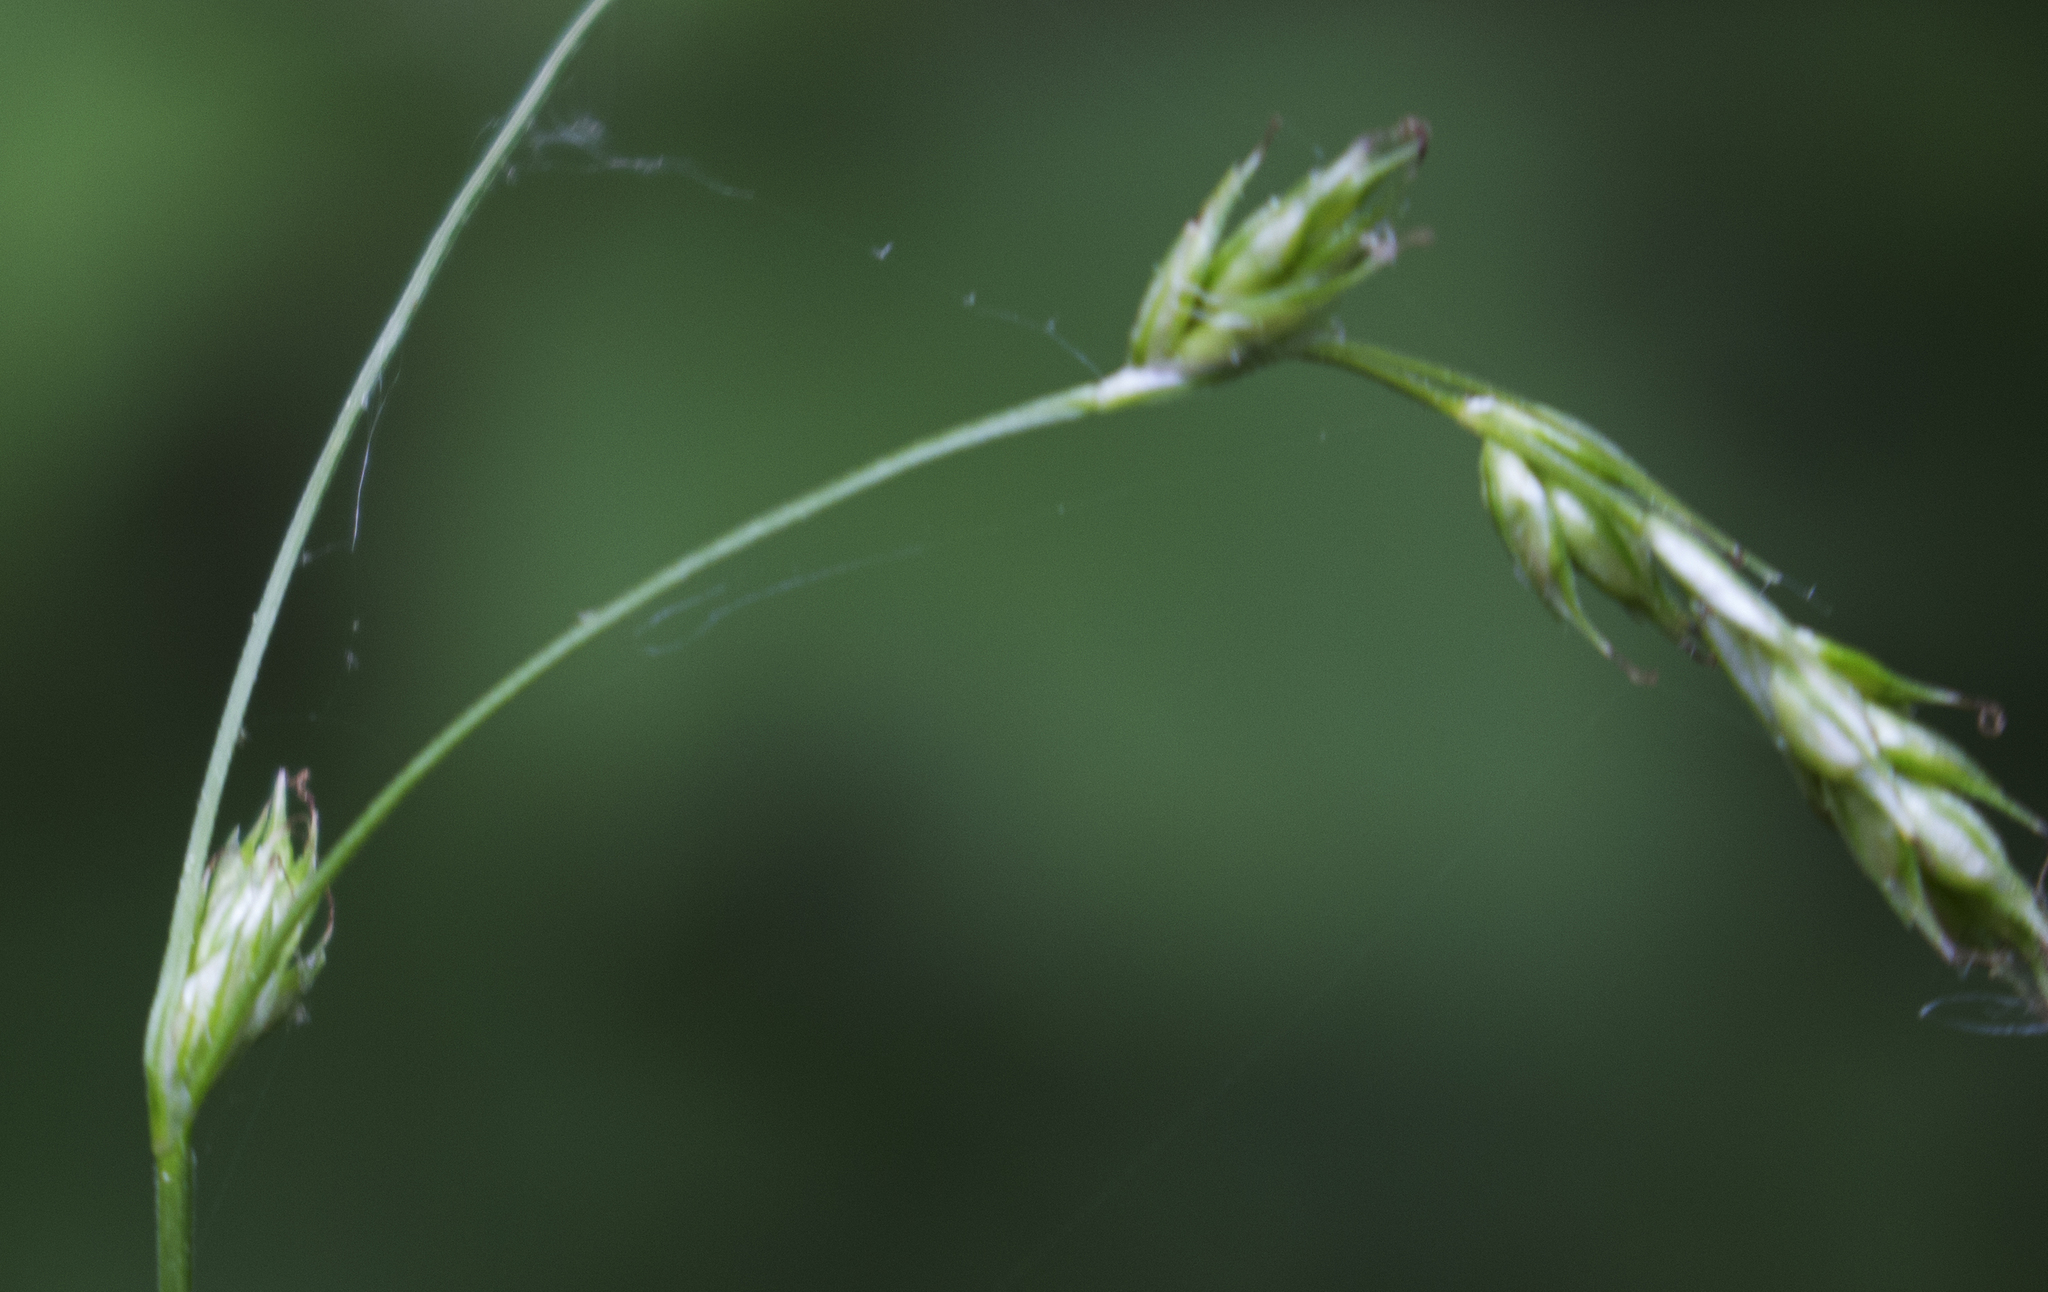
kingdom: Plantae
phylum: Tracheophyta
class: Liliopsida
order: Poales
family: Cyperaceae
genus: Carex
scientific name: Carex deweyana
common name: Dewey's sedge
